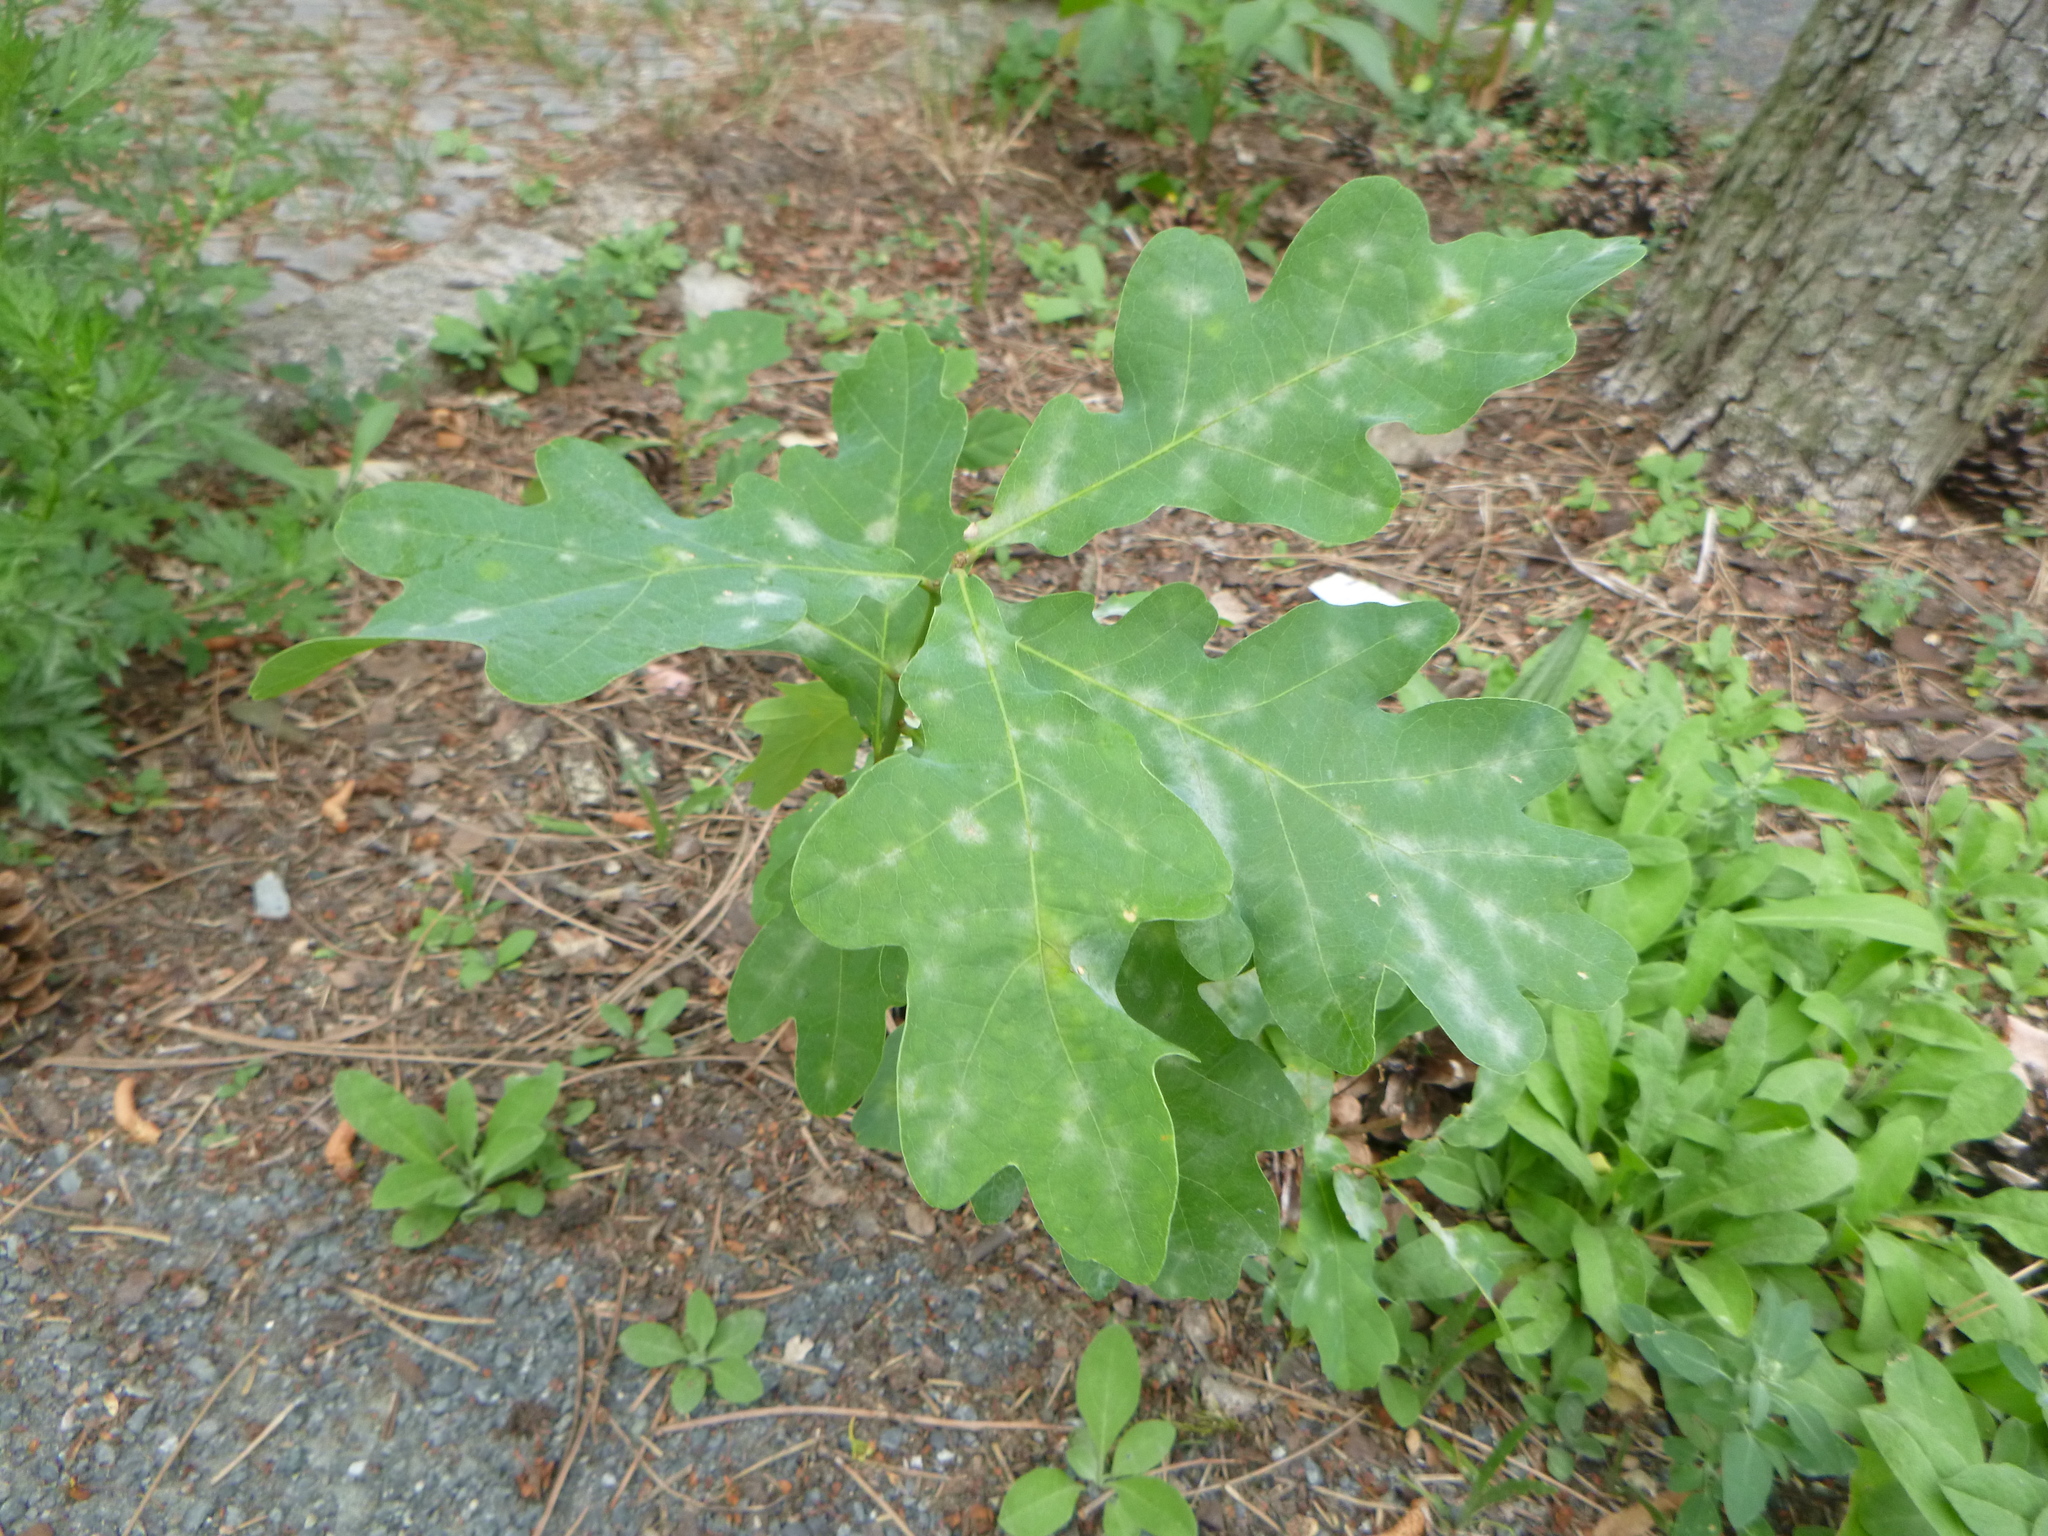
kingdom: Plantae
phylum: Tracheophyta
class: Magnoliopsida
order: Fagales
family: Fagaceae
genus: Quercus
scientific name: Quercus robur
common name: Pedunculate oak
